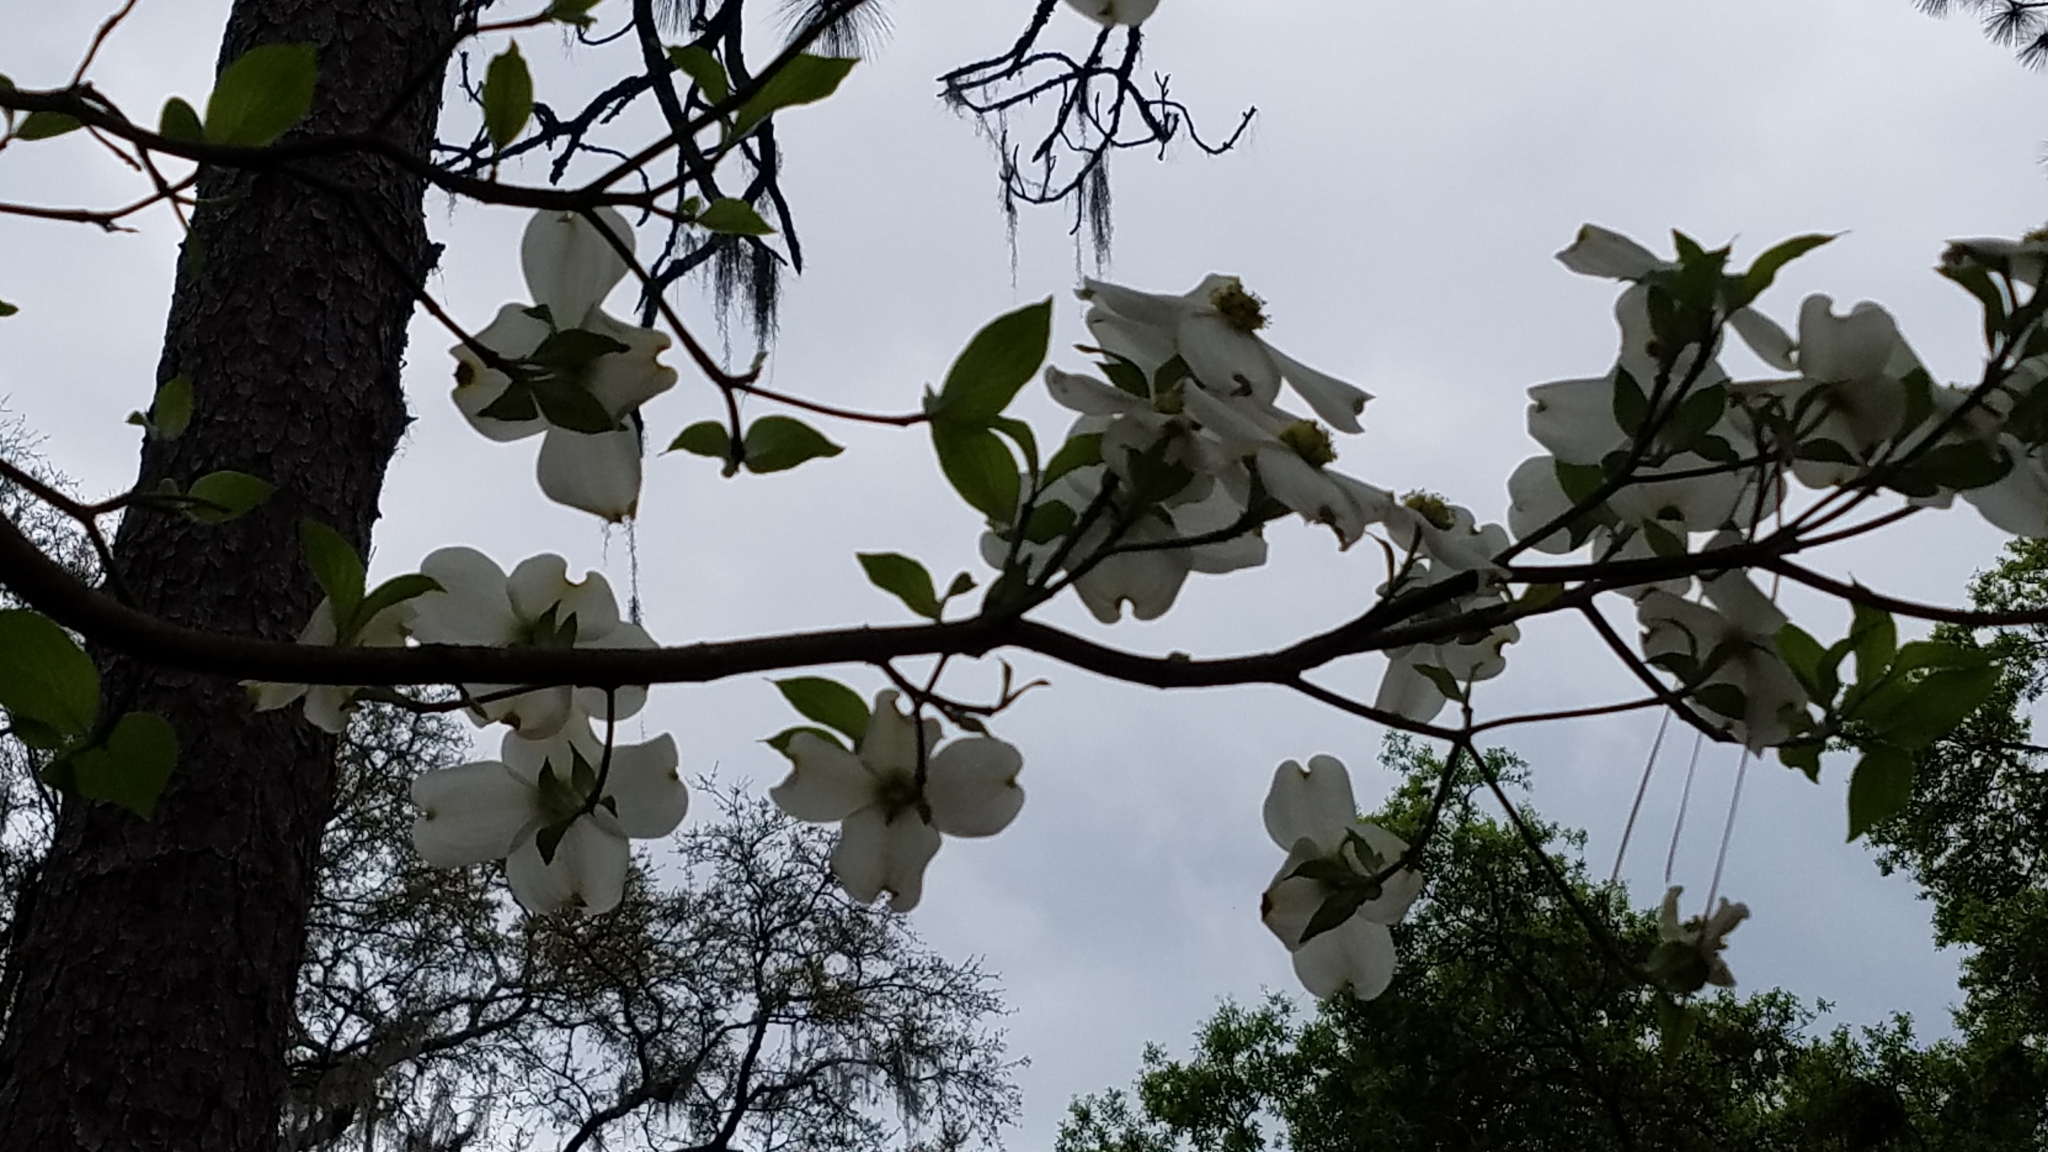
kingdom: Plantae
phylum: Tracheophyta
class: Magnoliopsida
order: Cornales
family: Cornaceae
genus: Cornus
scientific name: Cornus florida
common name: Flowering dogwood
